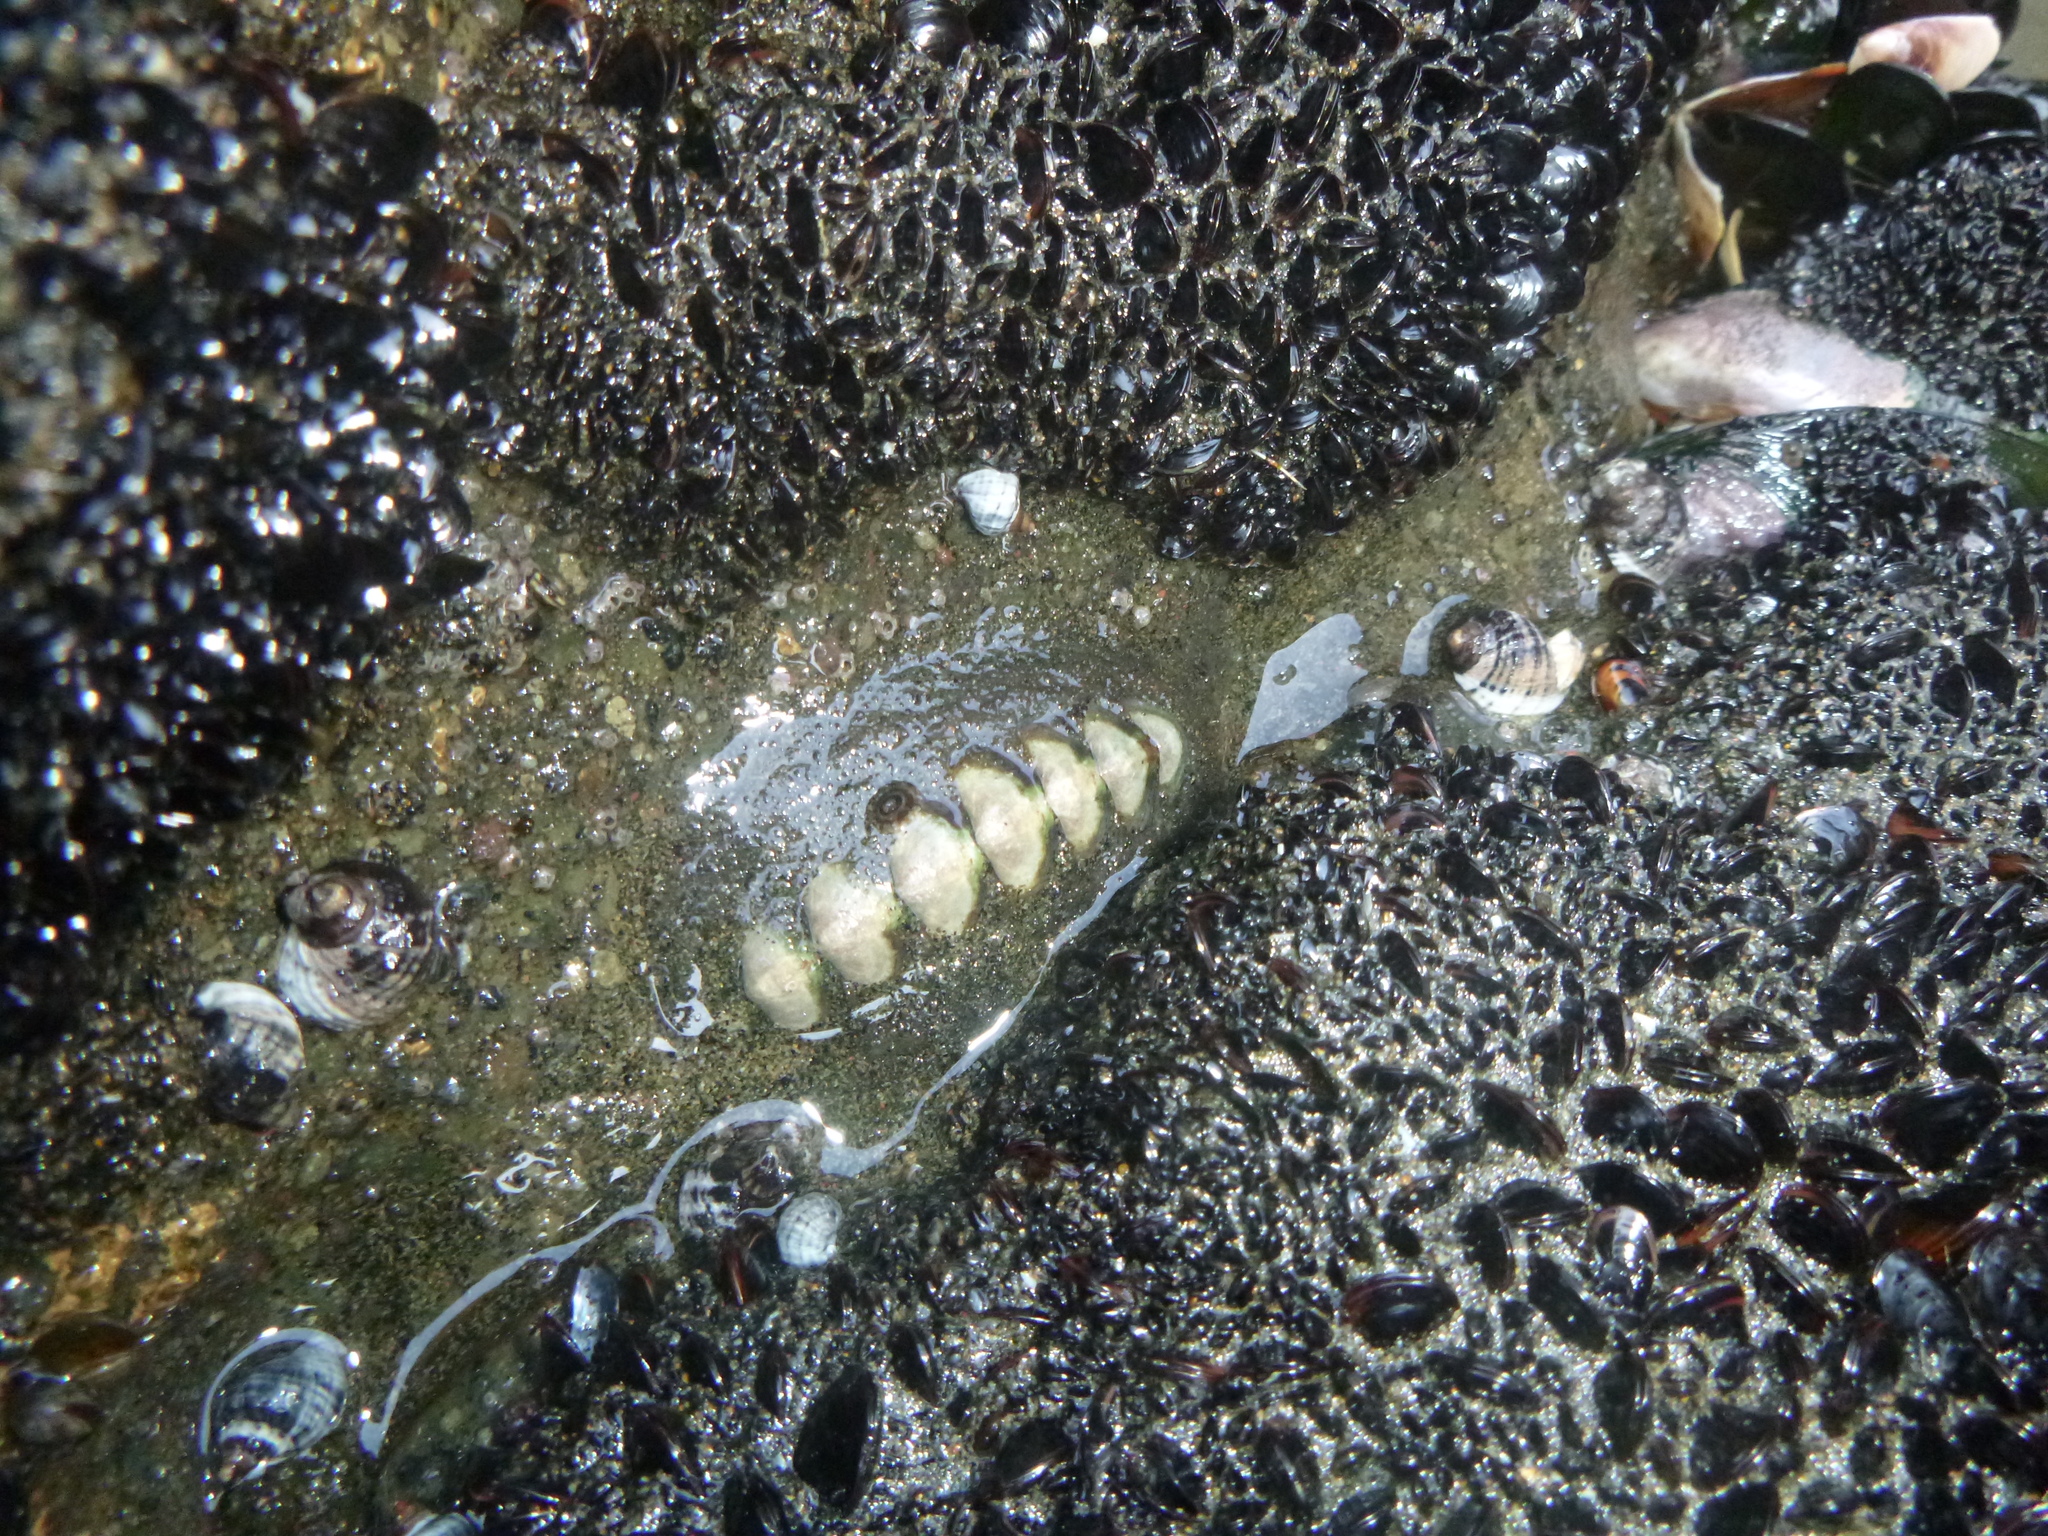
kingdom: Animalia
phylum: Mollusca
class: Polyplacophora
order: Chitonida
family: Mopaliidae
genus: Plaxiphora
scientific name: Plaxiphora obtecta
